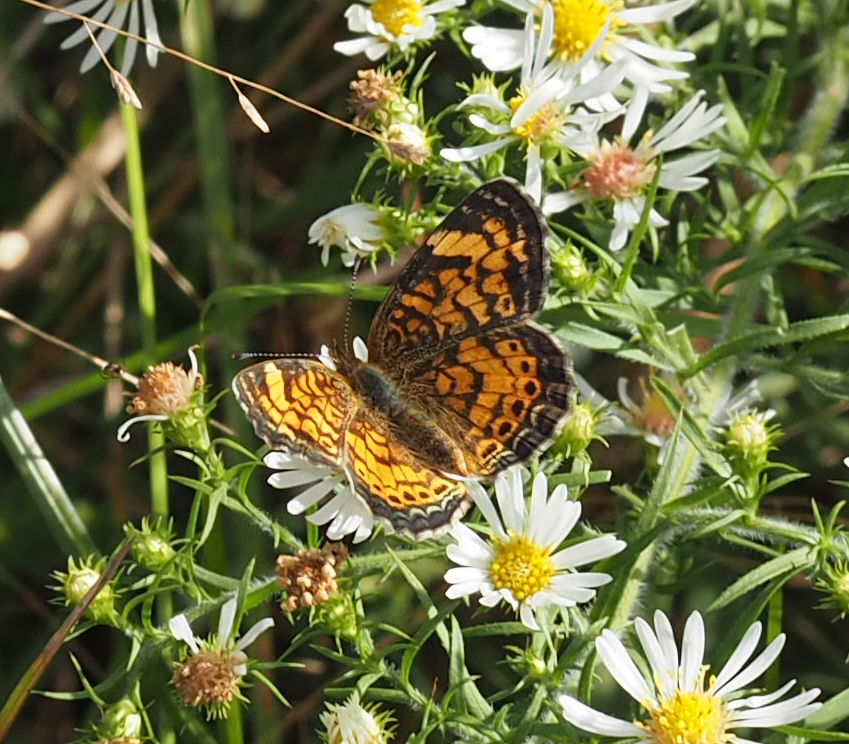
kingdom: Animalia
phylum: Arthropoda
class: Insecta
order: Lepidoptera
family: Nymphalidae
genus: Phyciodes
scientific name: Phyciodes tharos
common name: Pearl crescent
